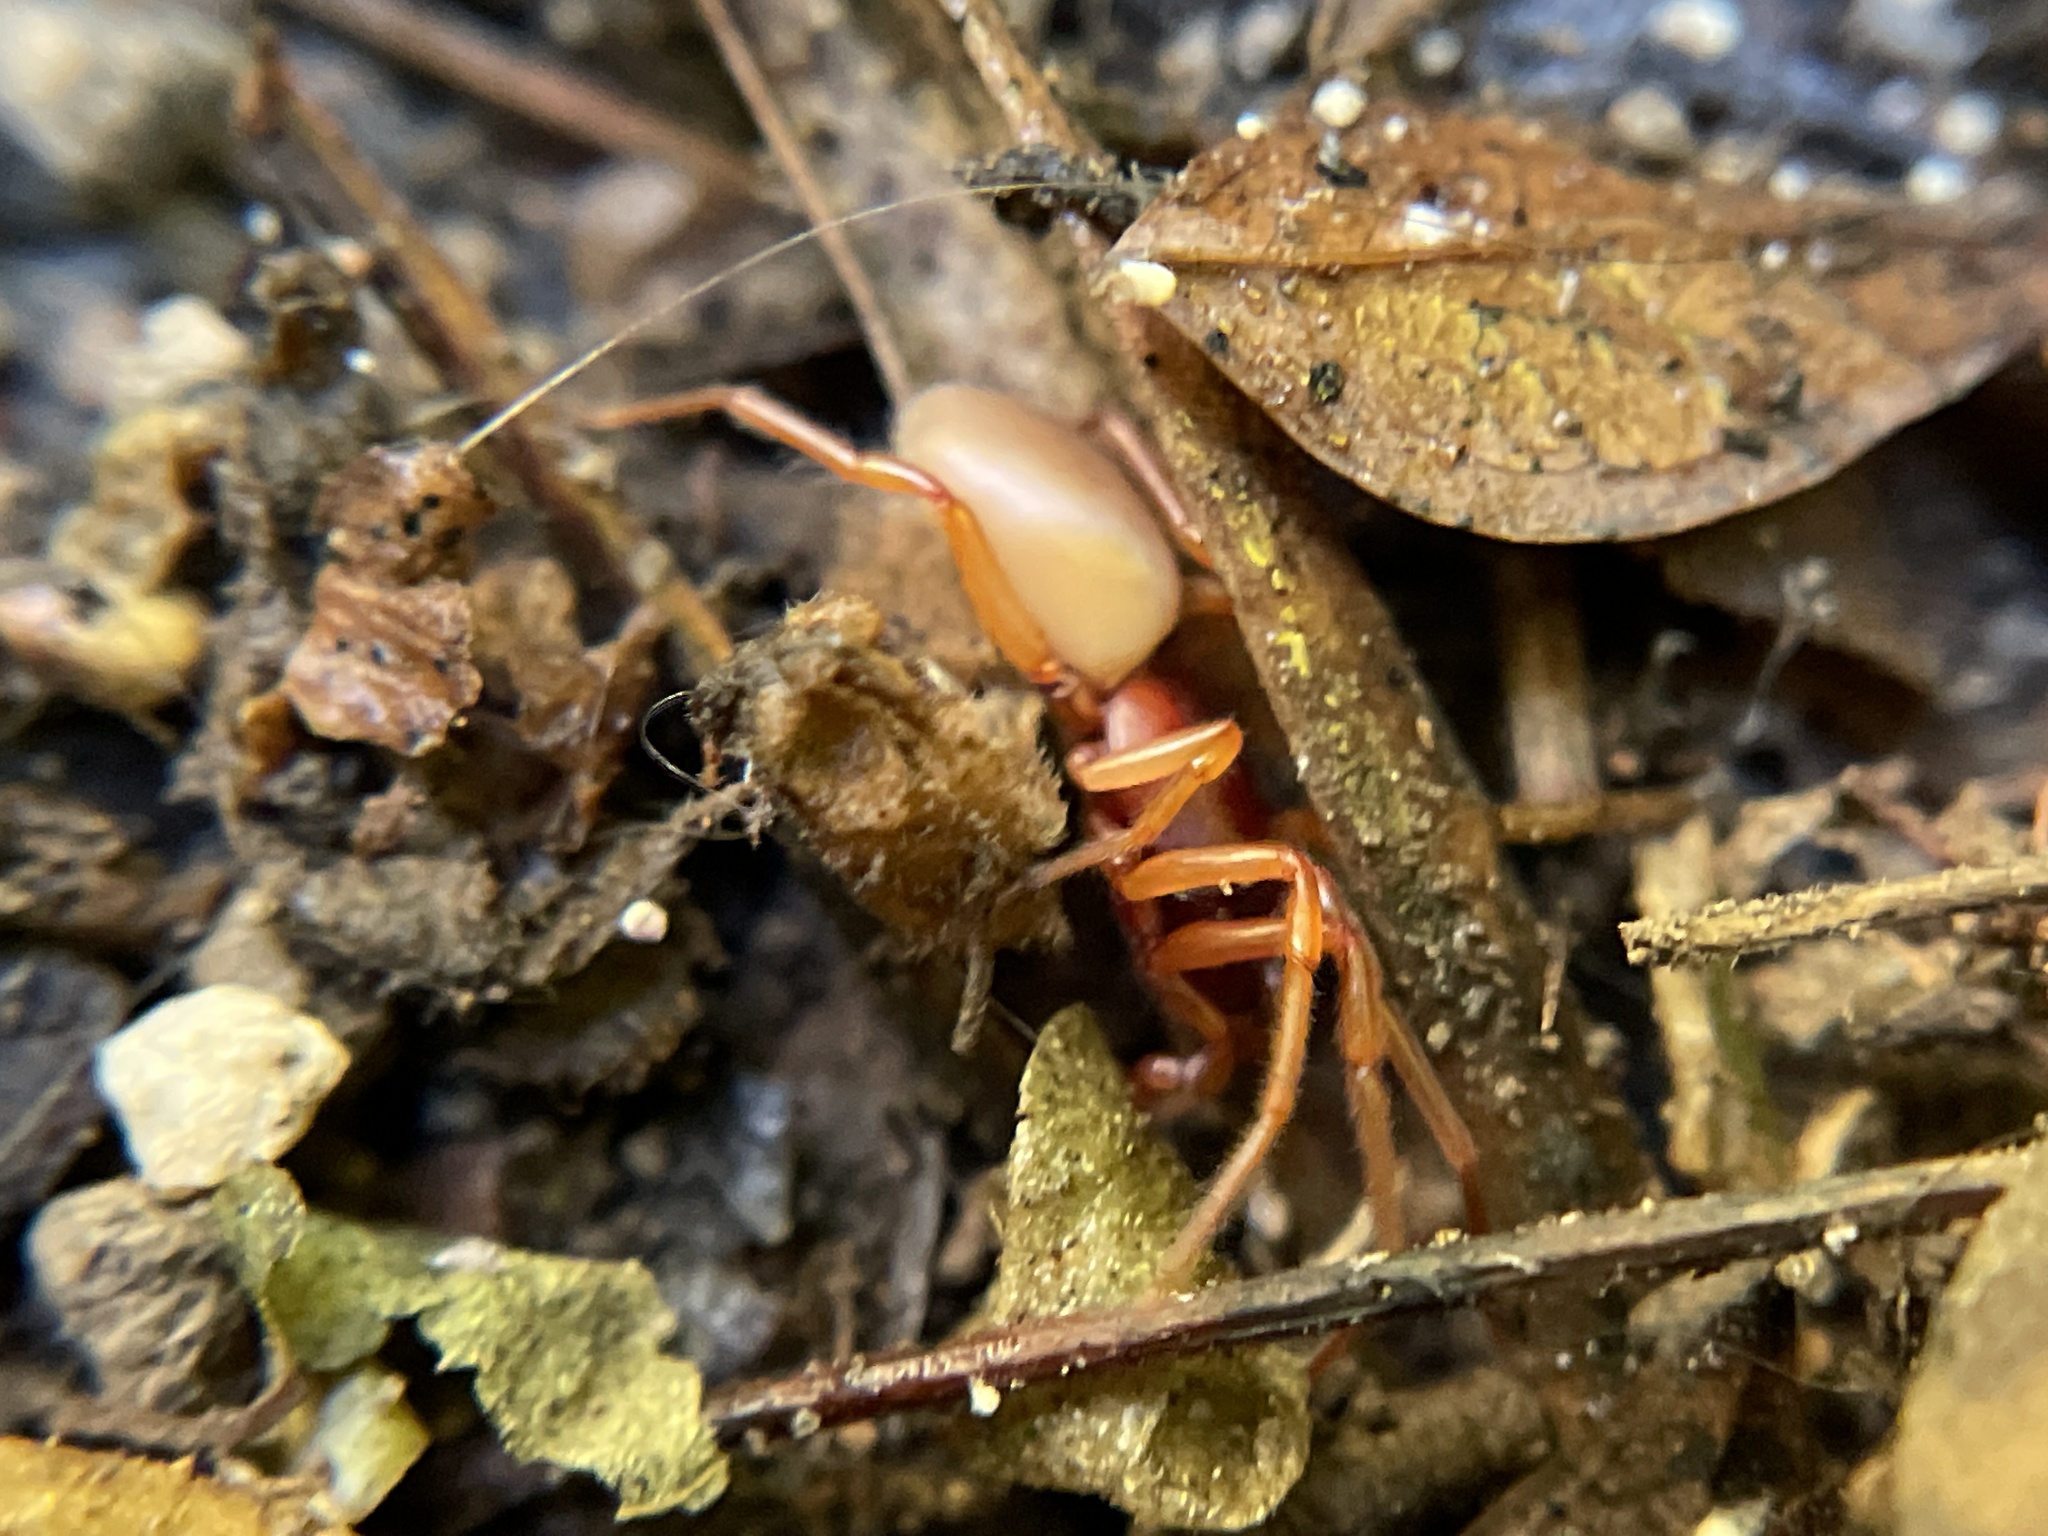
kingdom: Animalia
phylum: Arthropoda
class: Arachnida
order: Araneae
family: Dysderidae
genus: Dysdera
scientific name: Dysdera crocata
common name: Woodlouse spider
